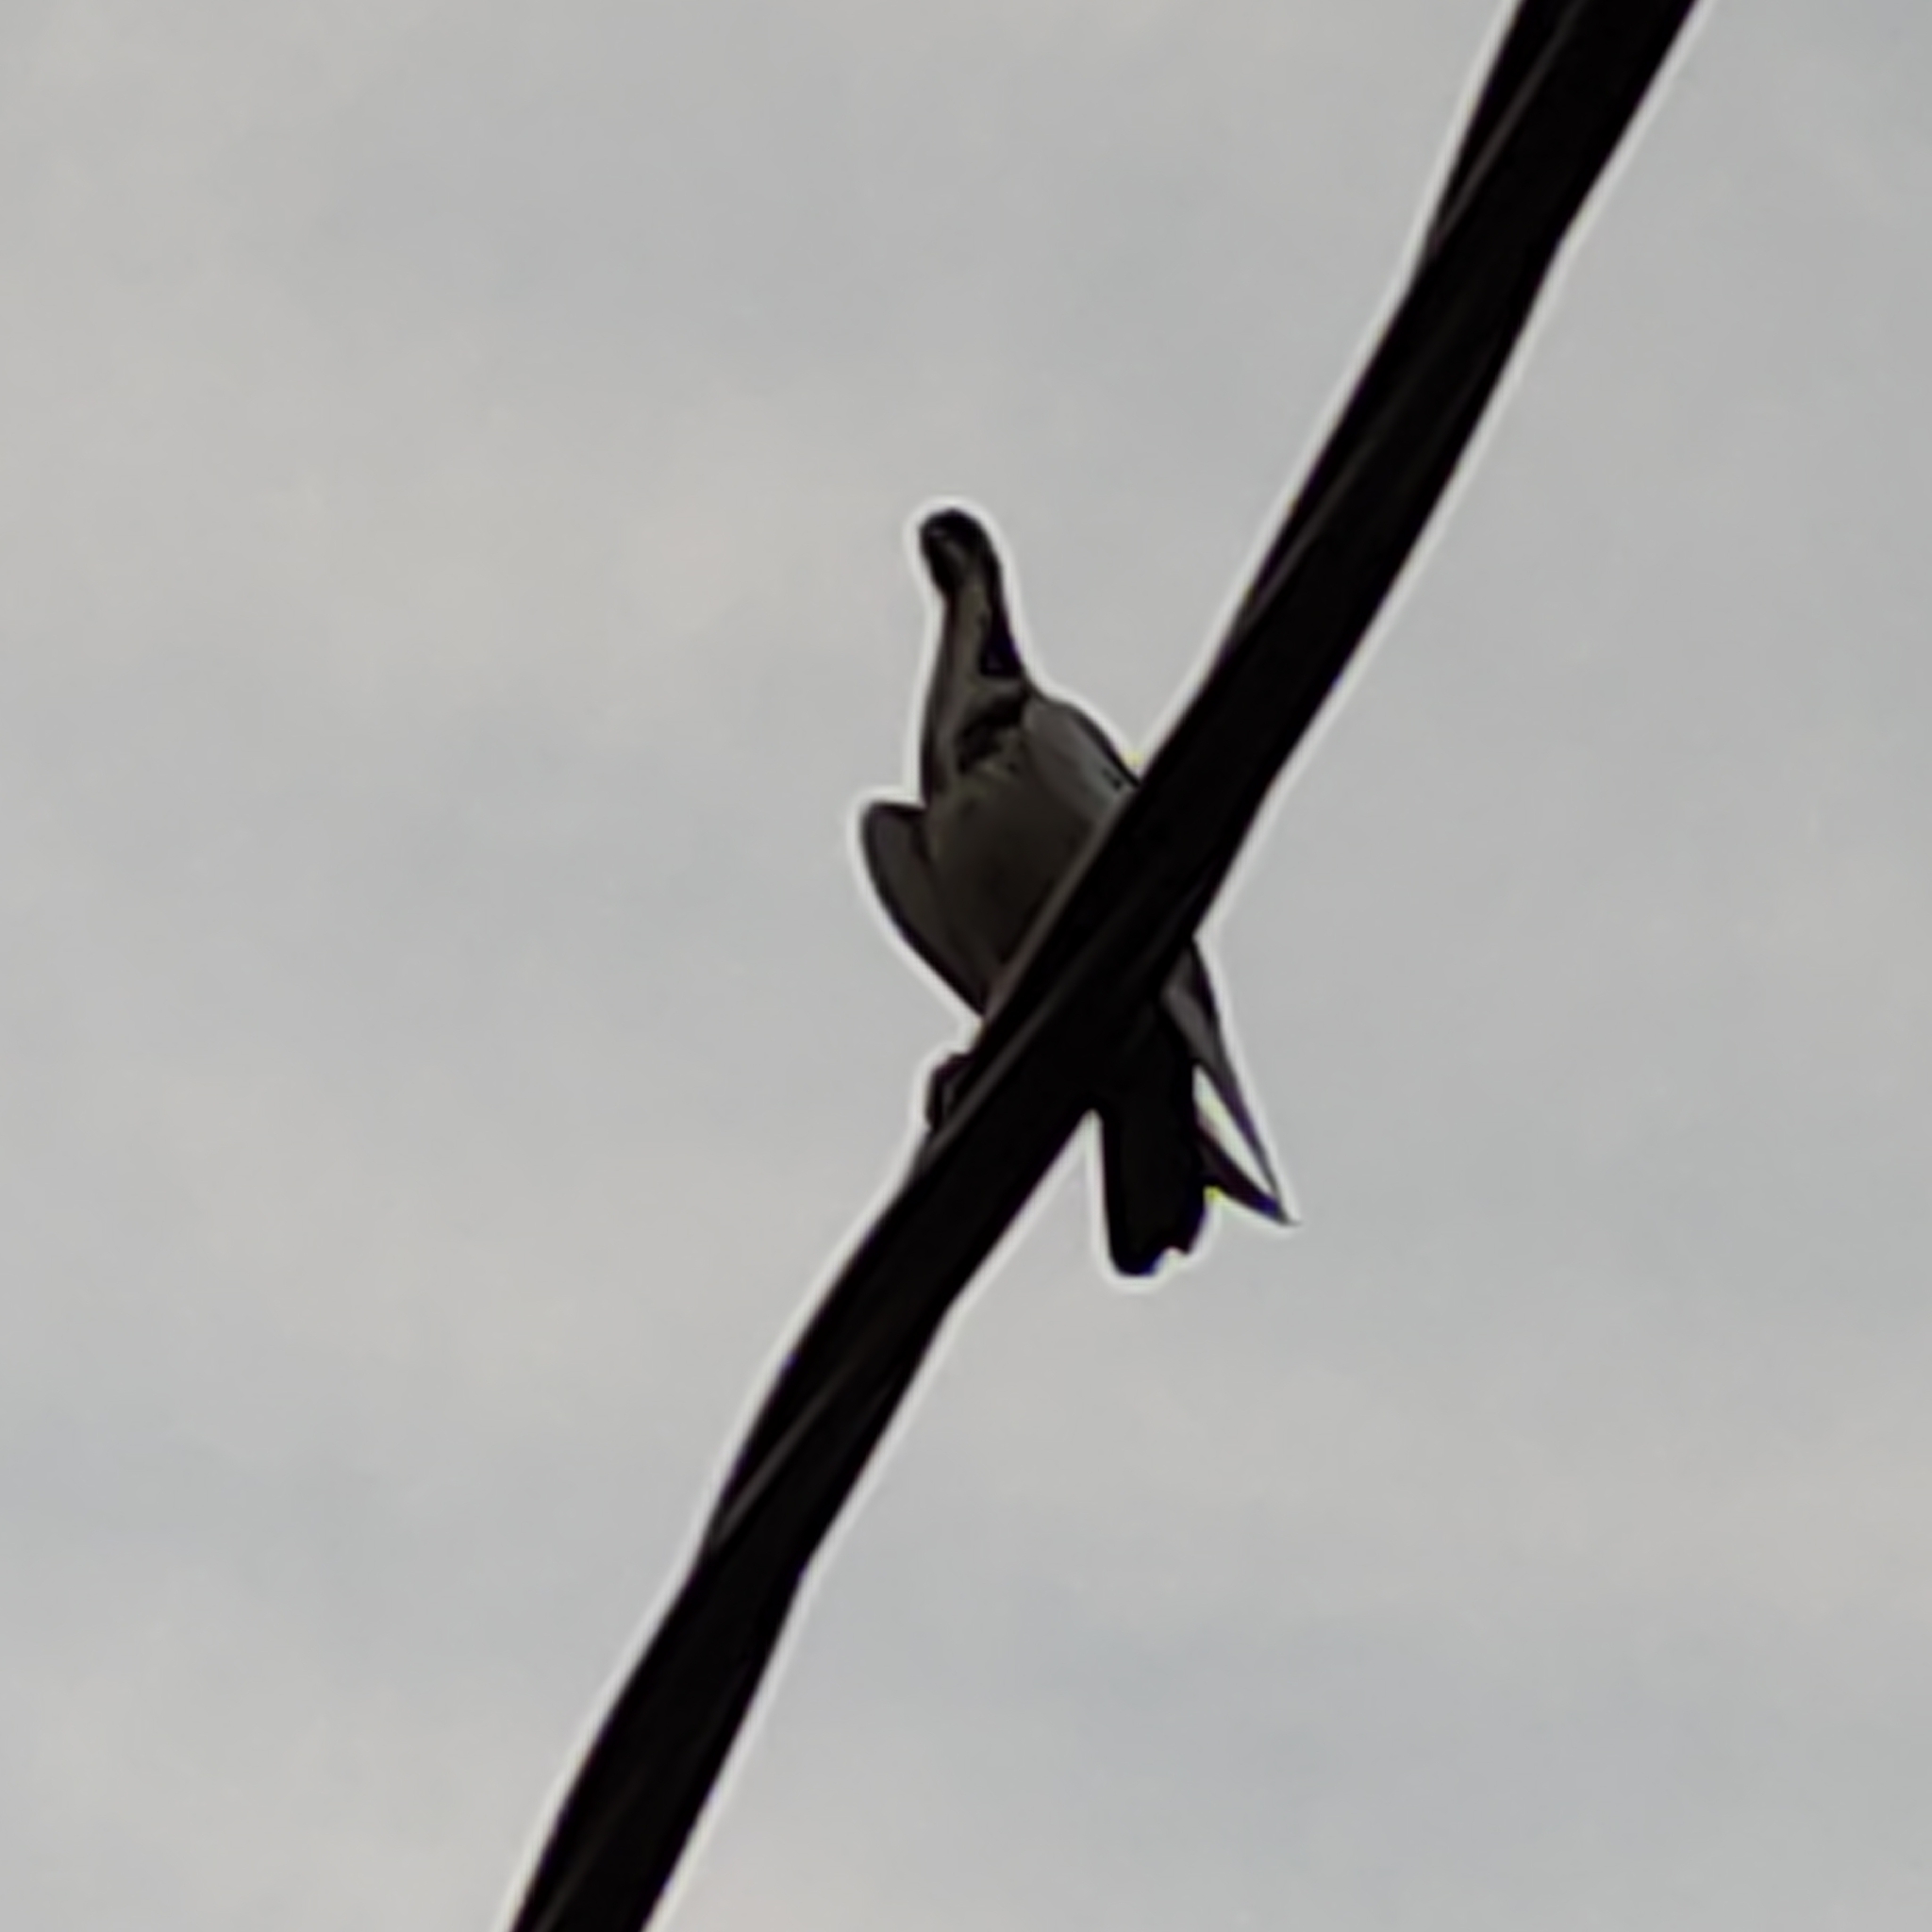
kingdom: Animalia
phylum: Chordata
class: Aves
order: Columbiformes
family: Columbidae
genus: Columba
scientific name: Columba livia
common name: Rock pigeon
